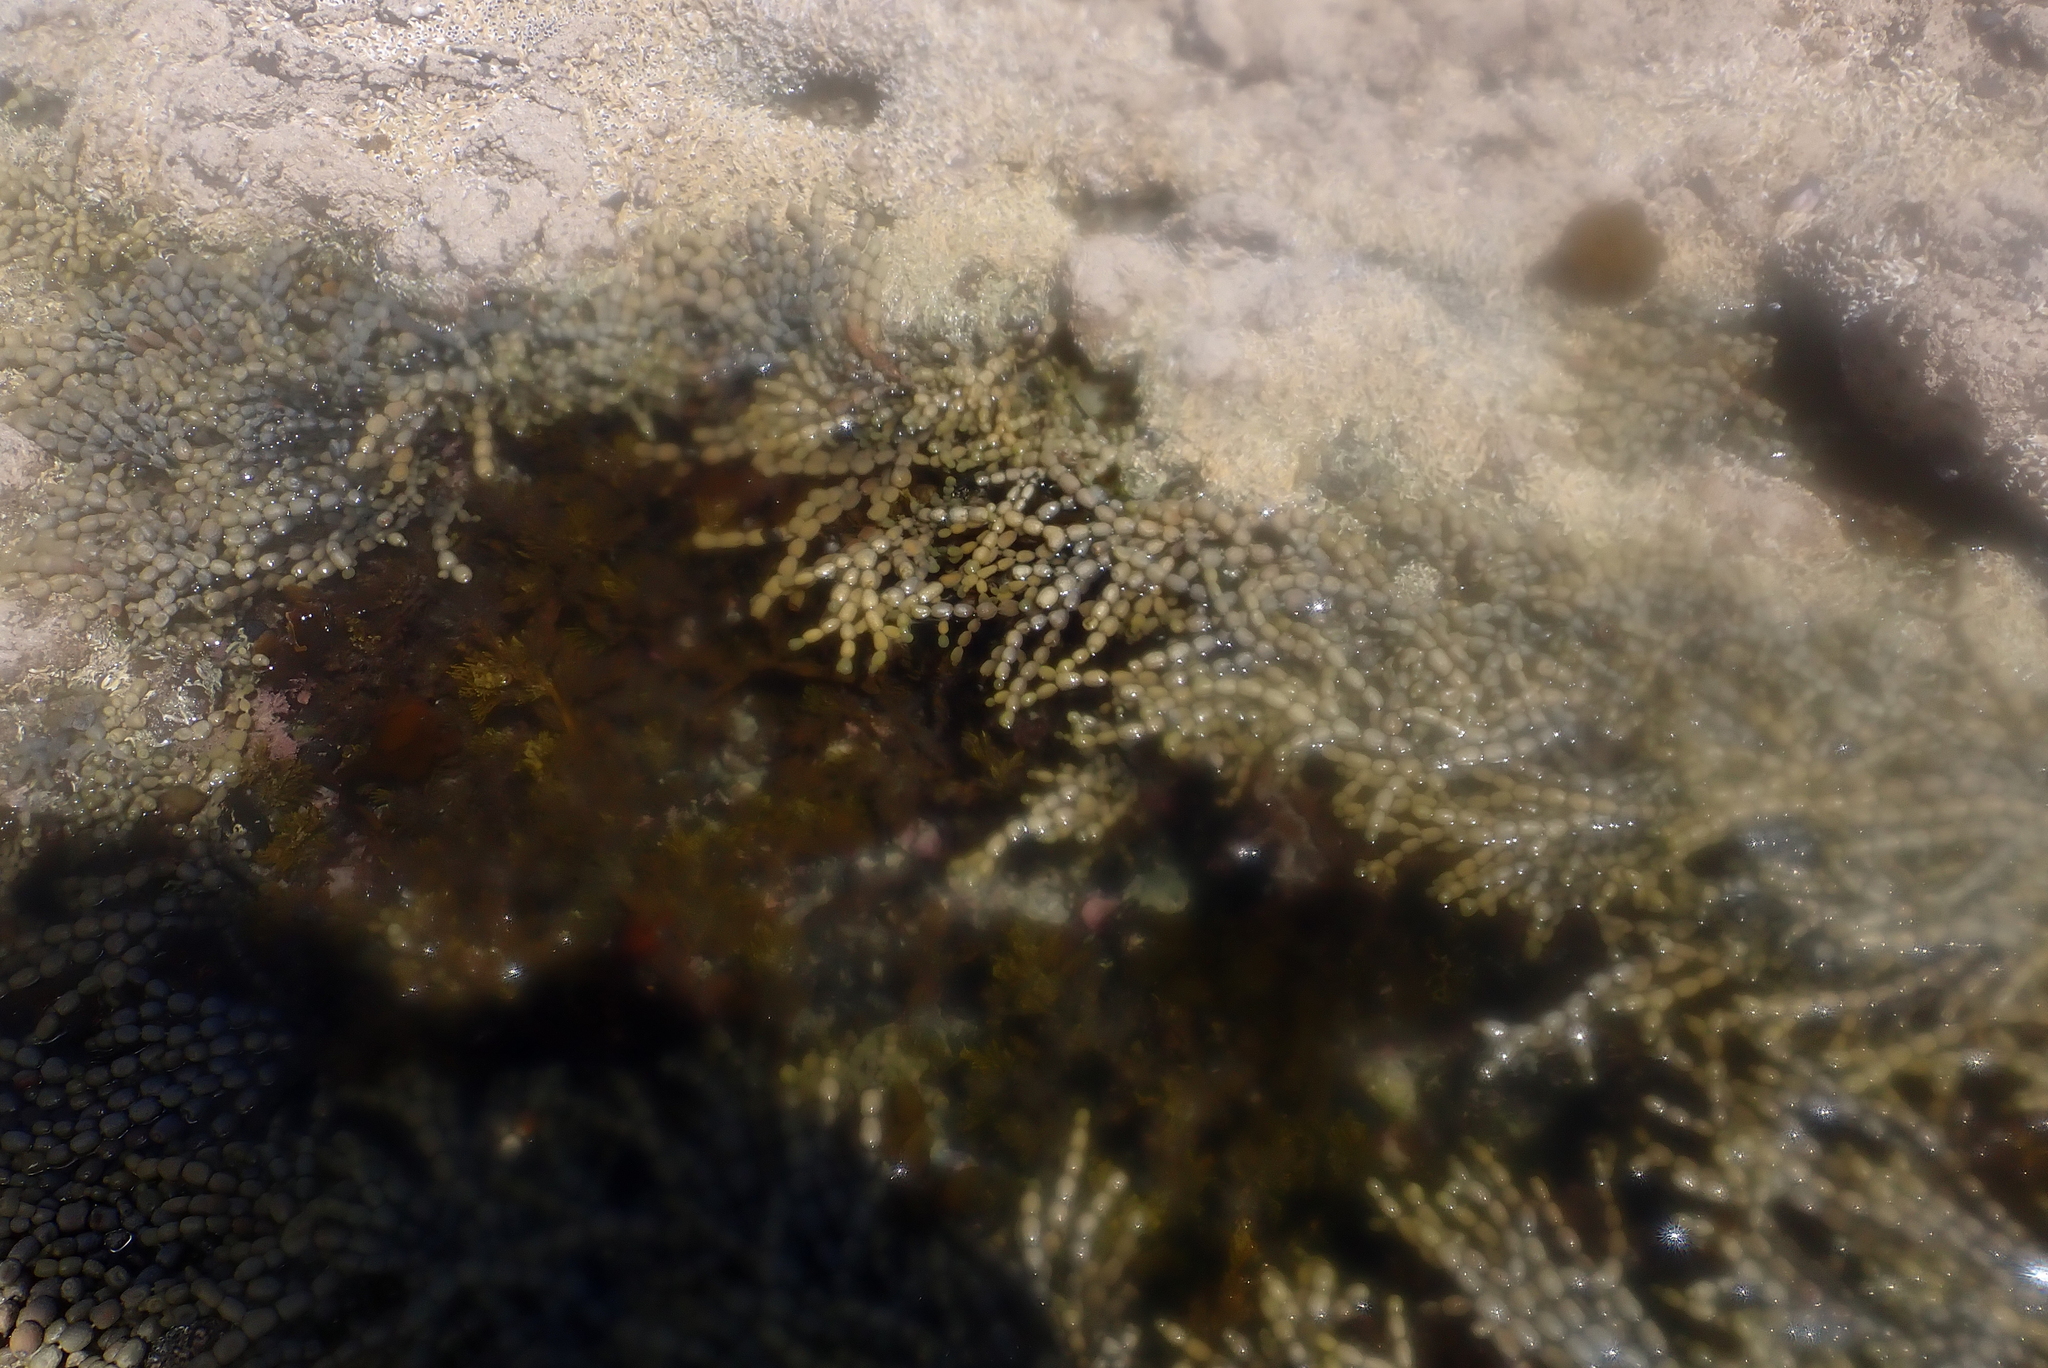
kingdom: Chromista
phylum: Ochrophyta
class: Phaeophyceae
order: Fucales
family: Hormosiraceae
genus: Hormosira
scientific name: Hormosira banksii
